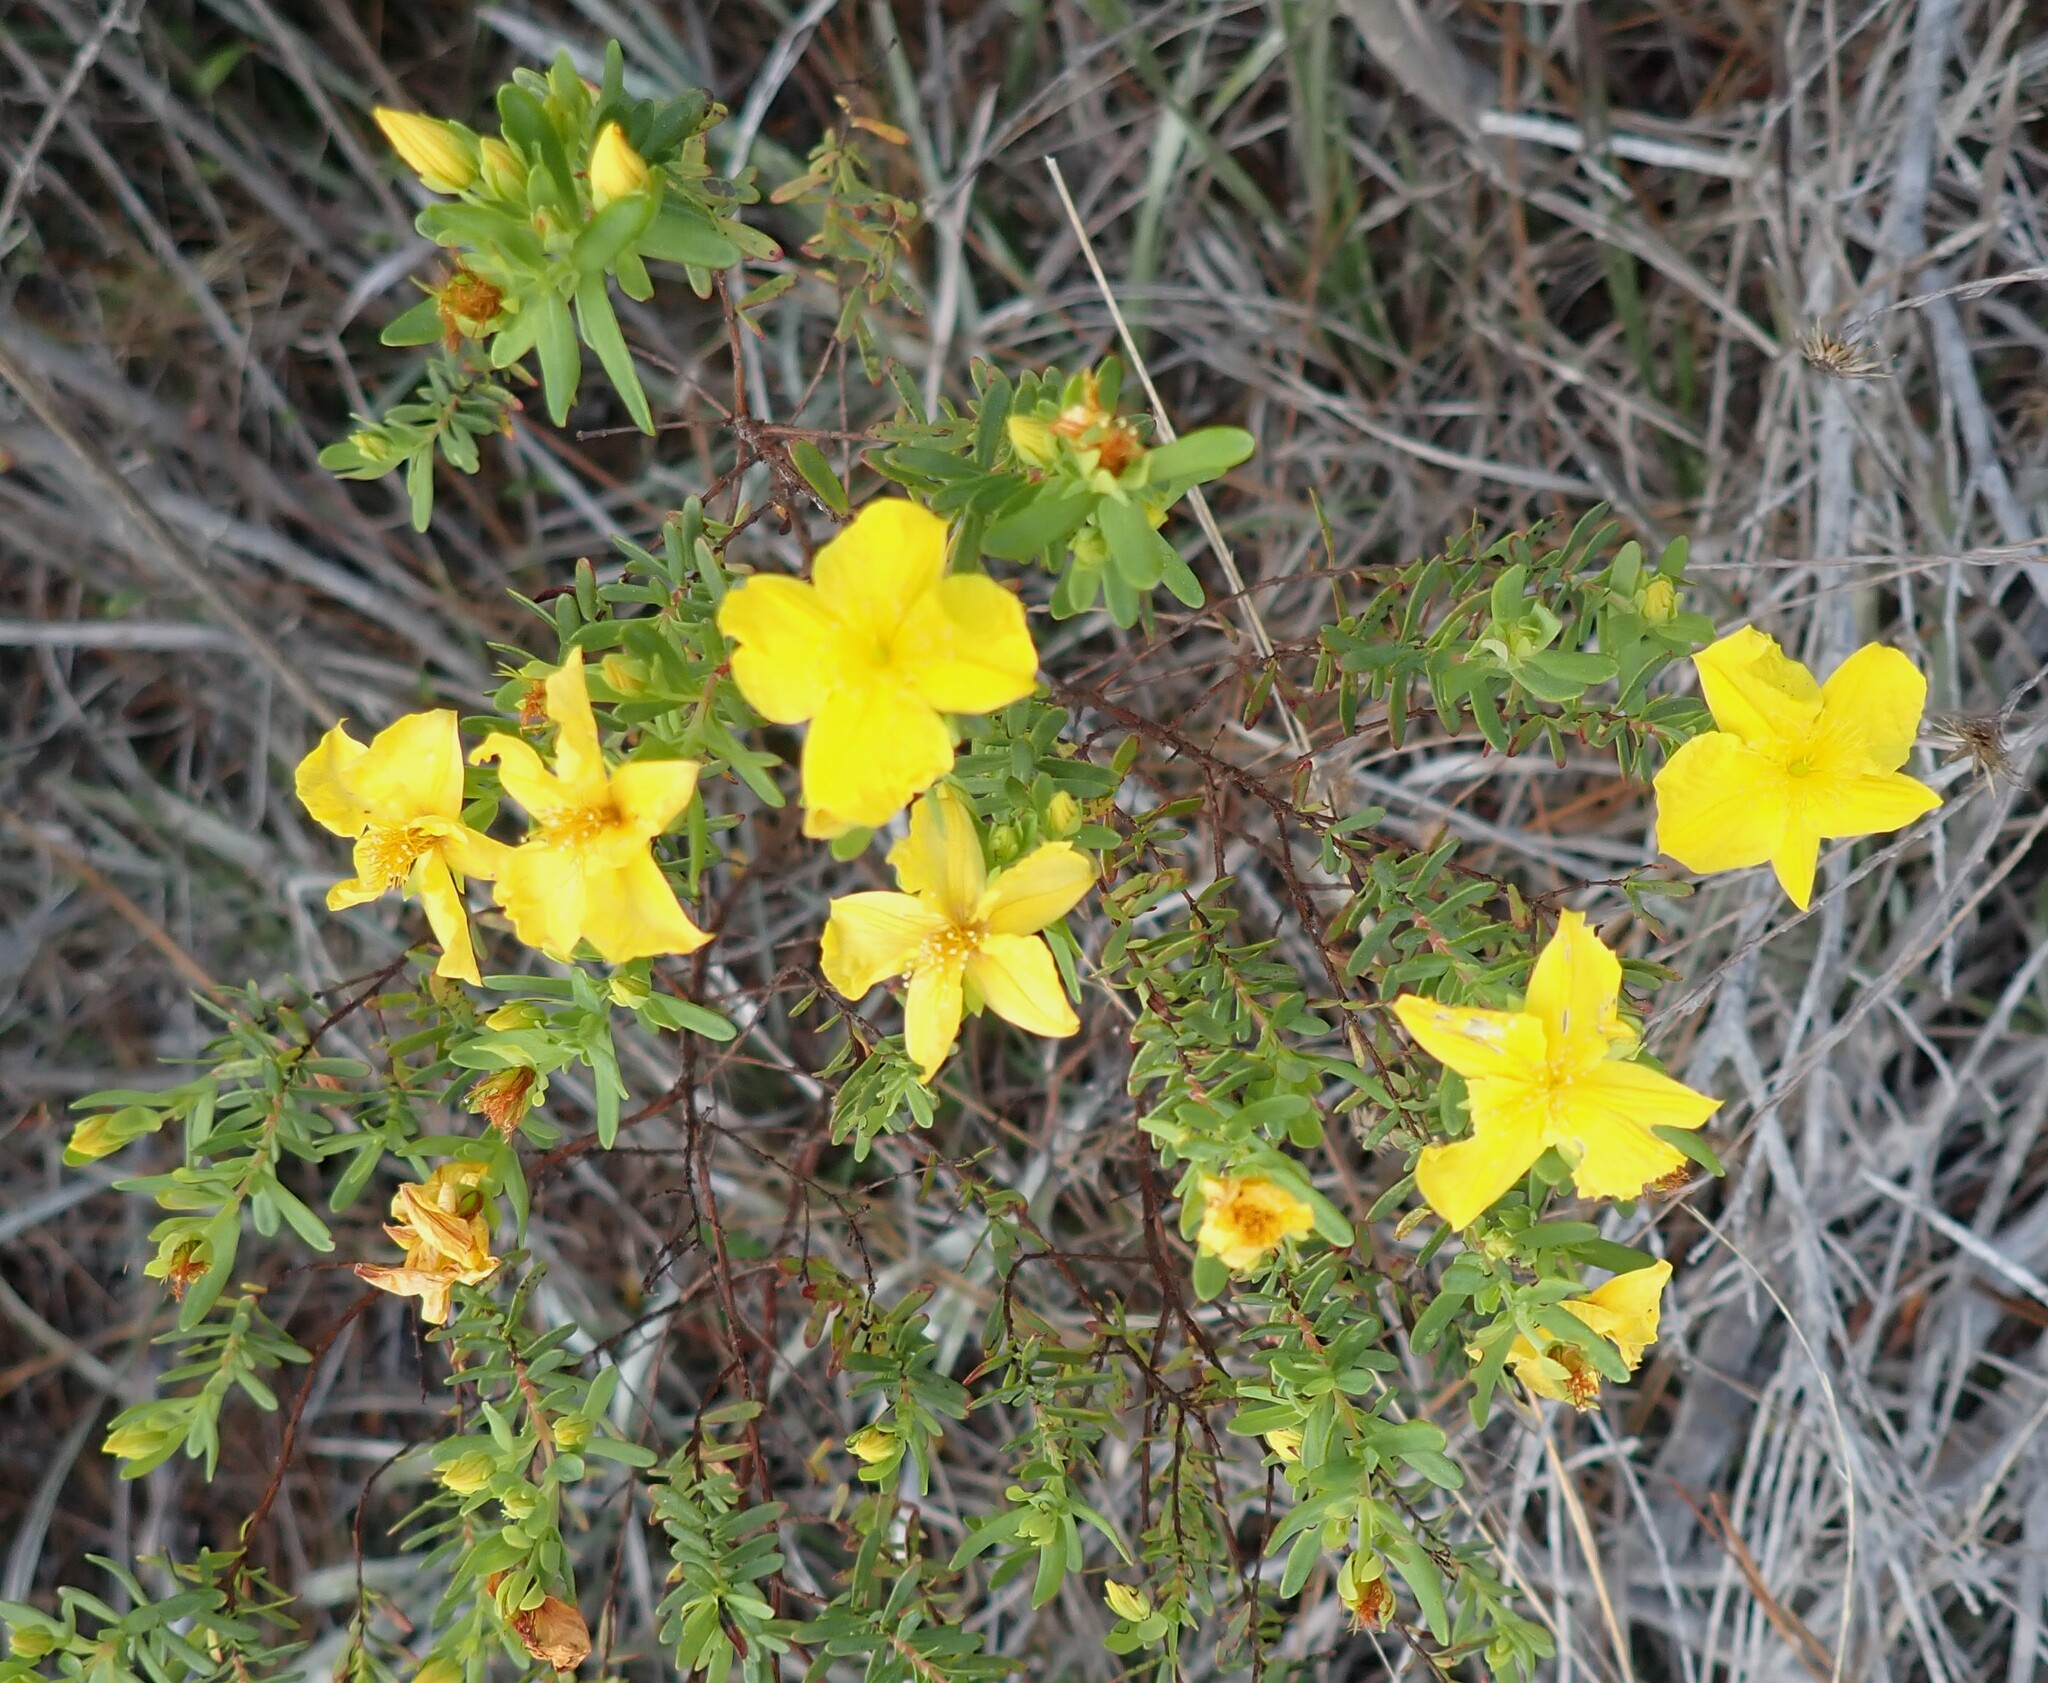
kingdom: Plantae
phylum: Tracheophyta
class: Magnoliopsida
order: Malpighiales
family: Hypericaceae
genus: Hypericum
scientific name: Hypericum microsepalum
